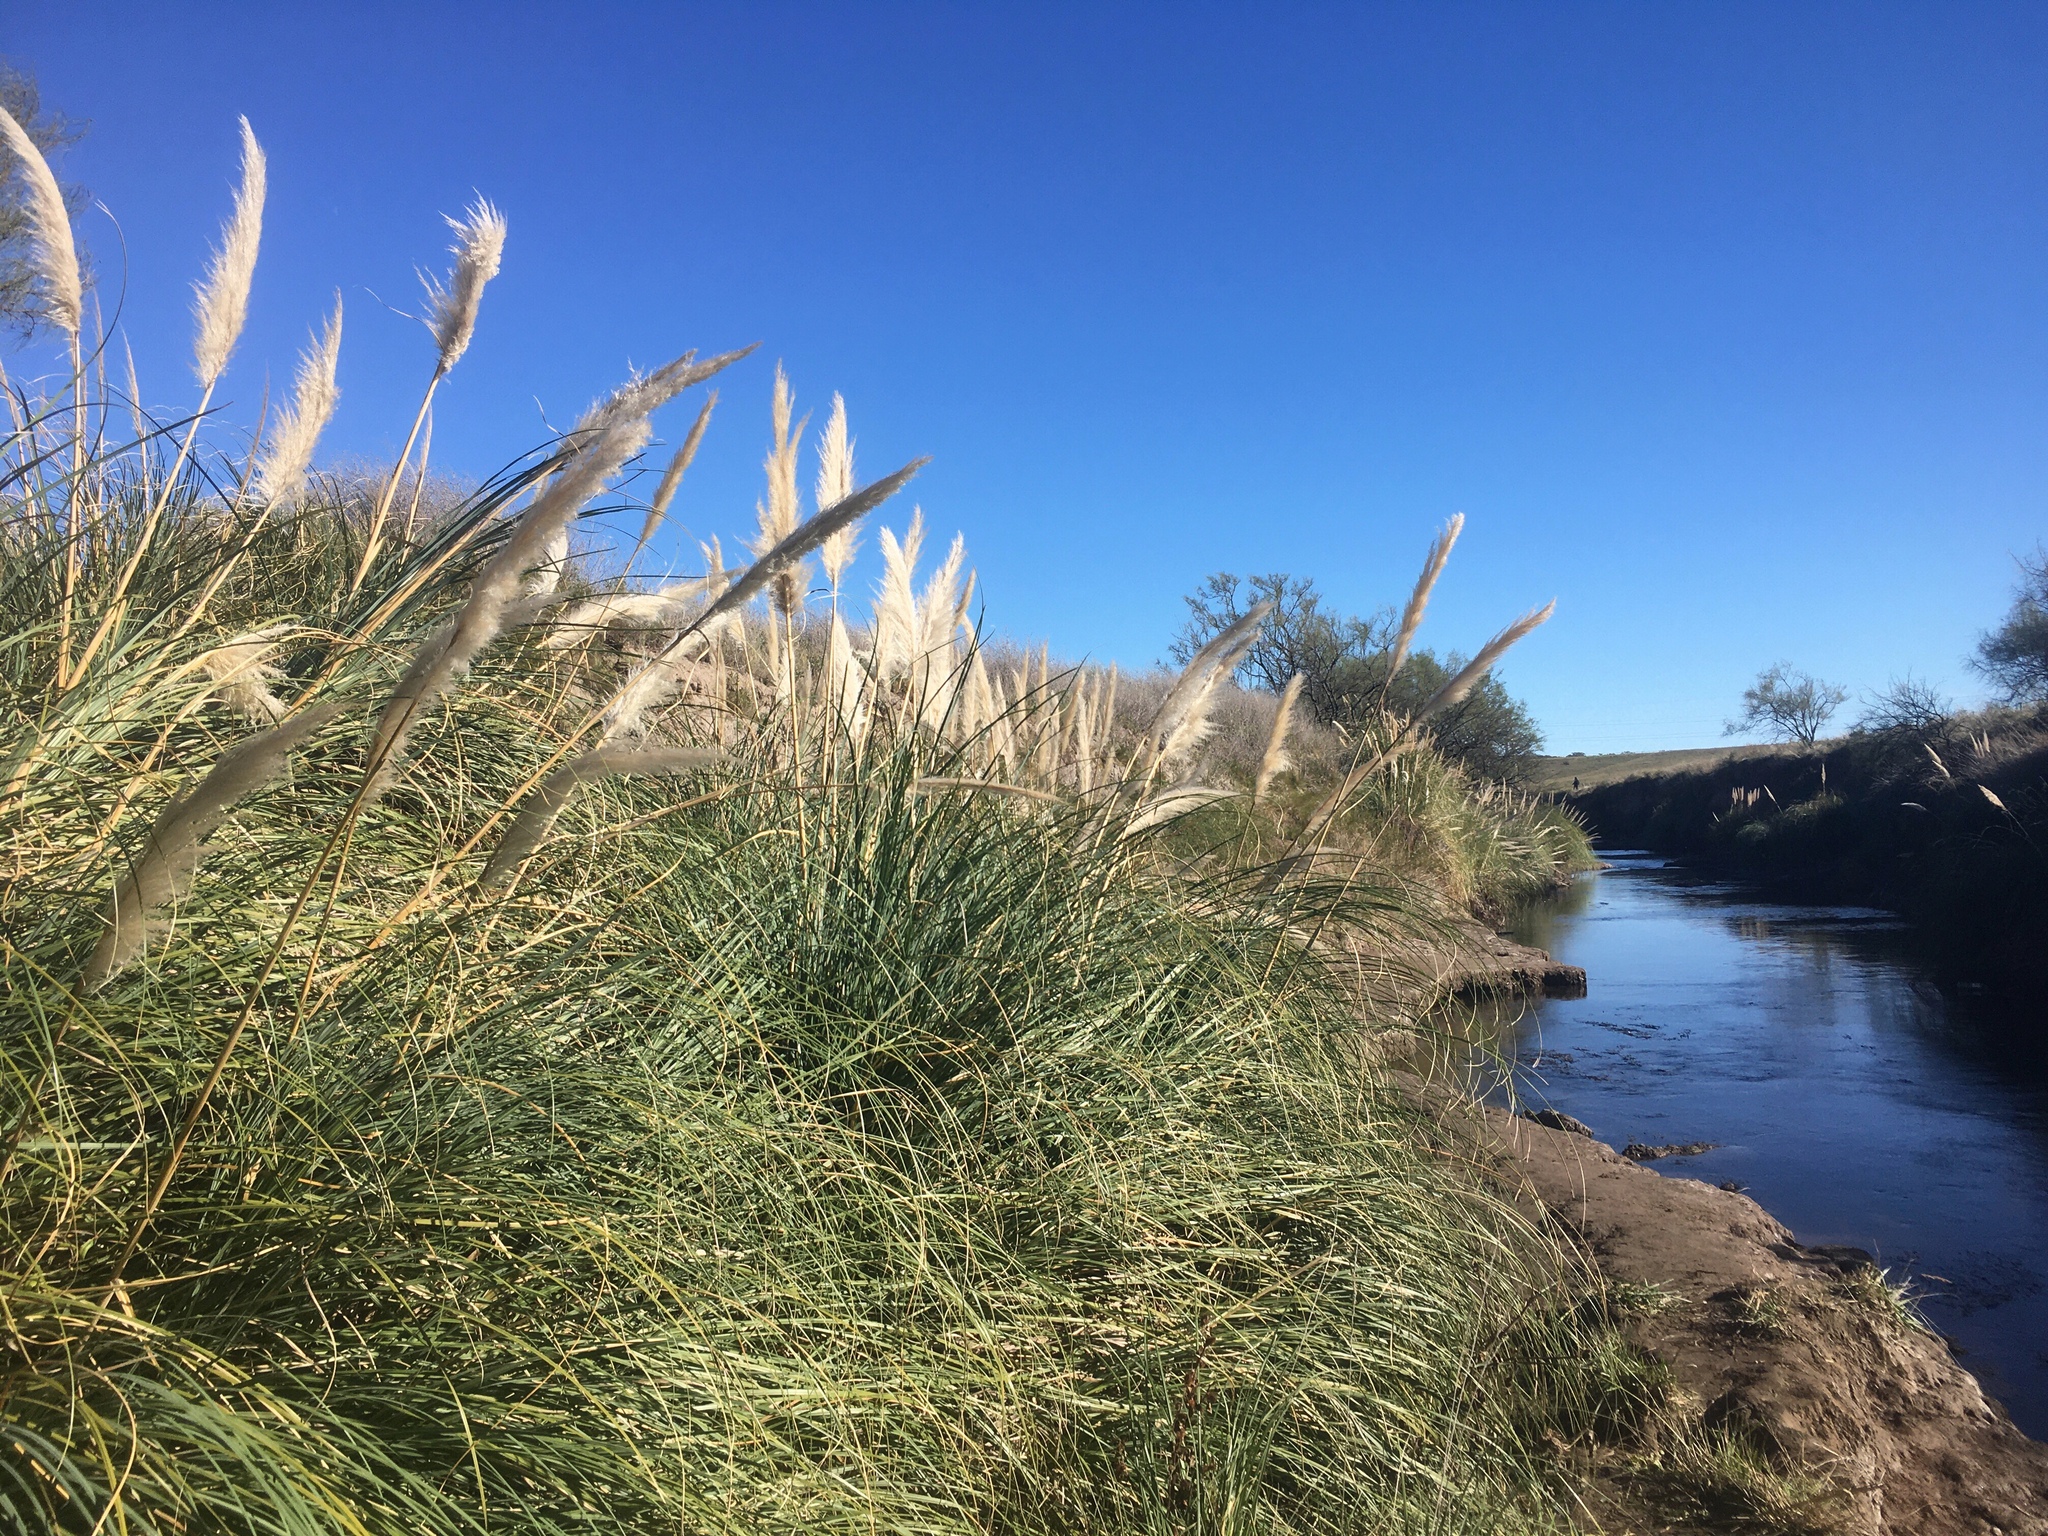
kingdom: Plantae
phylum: Tracheophyta
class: Liliopsida
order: Poales
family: Poaceae
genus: Cortaderia
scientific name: Cortaderia selloana
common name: Uruguayan pampas grass
